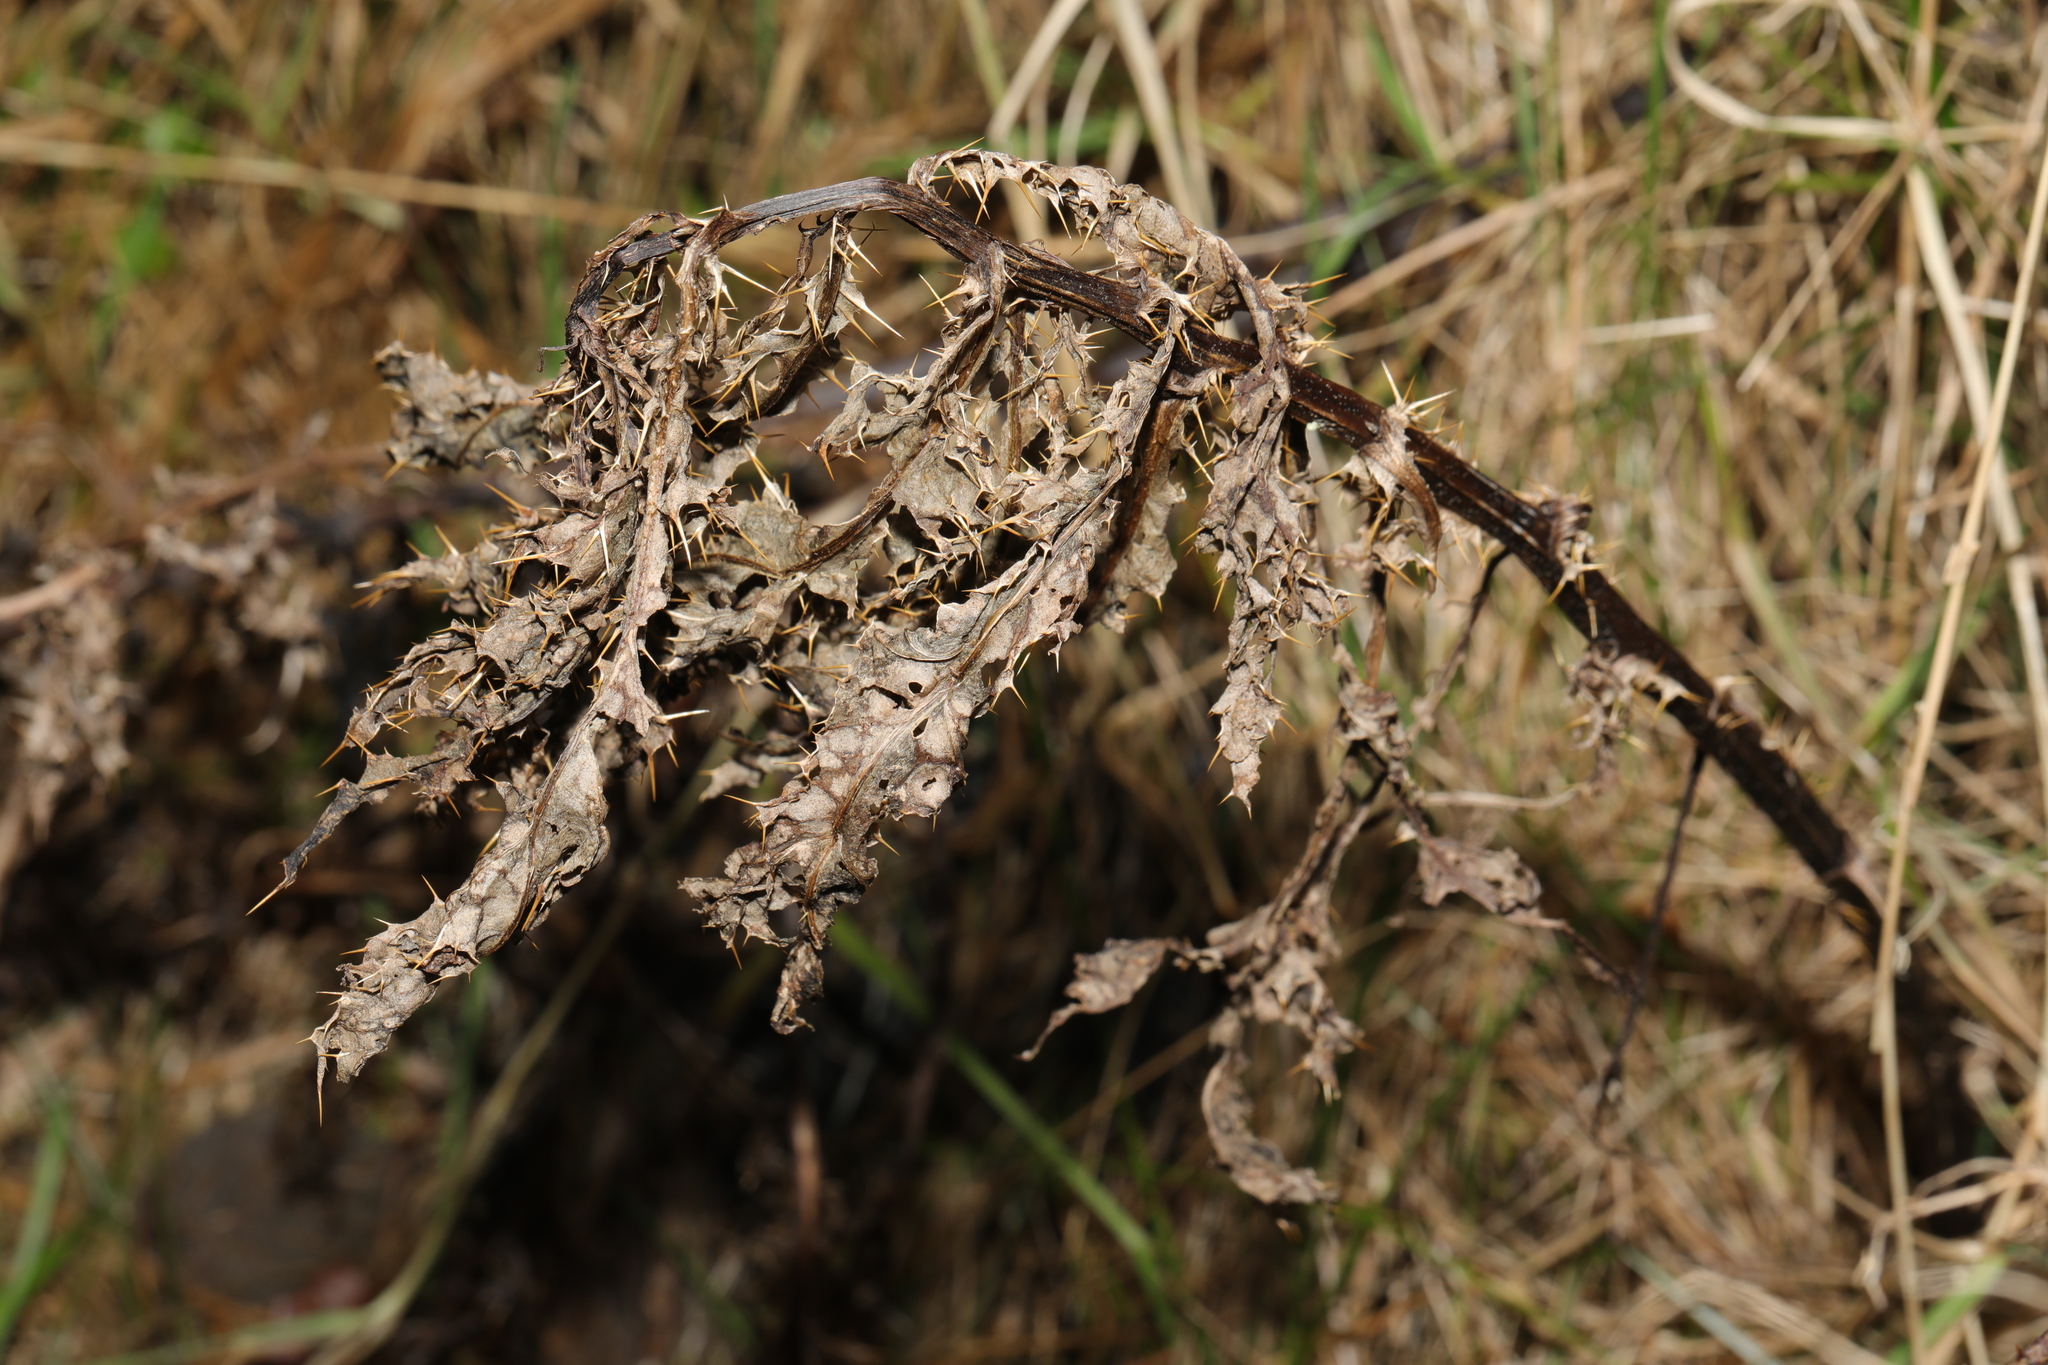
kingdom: Plantae
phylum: Tracheophyta
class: Magnoliopsida
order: Asterales
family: Asteraceae
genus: Cirsium
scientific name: Cirsium arvense
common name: Creeping thistle
